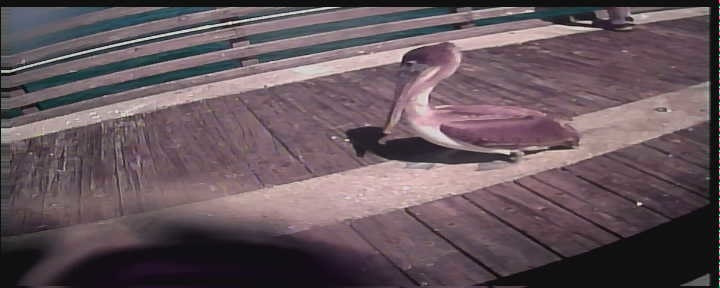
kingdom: Animalia
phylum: Chordata
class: Aves
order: Pelecaniformes
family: Pelecanidae
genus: Pelecanus
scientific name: Pelecanus occidentalis
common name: Brown pelican
